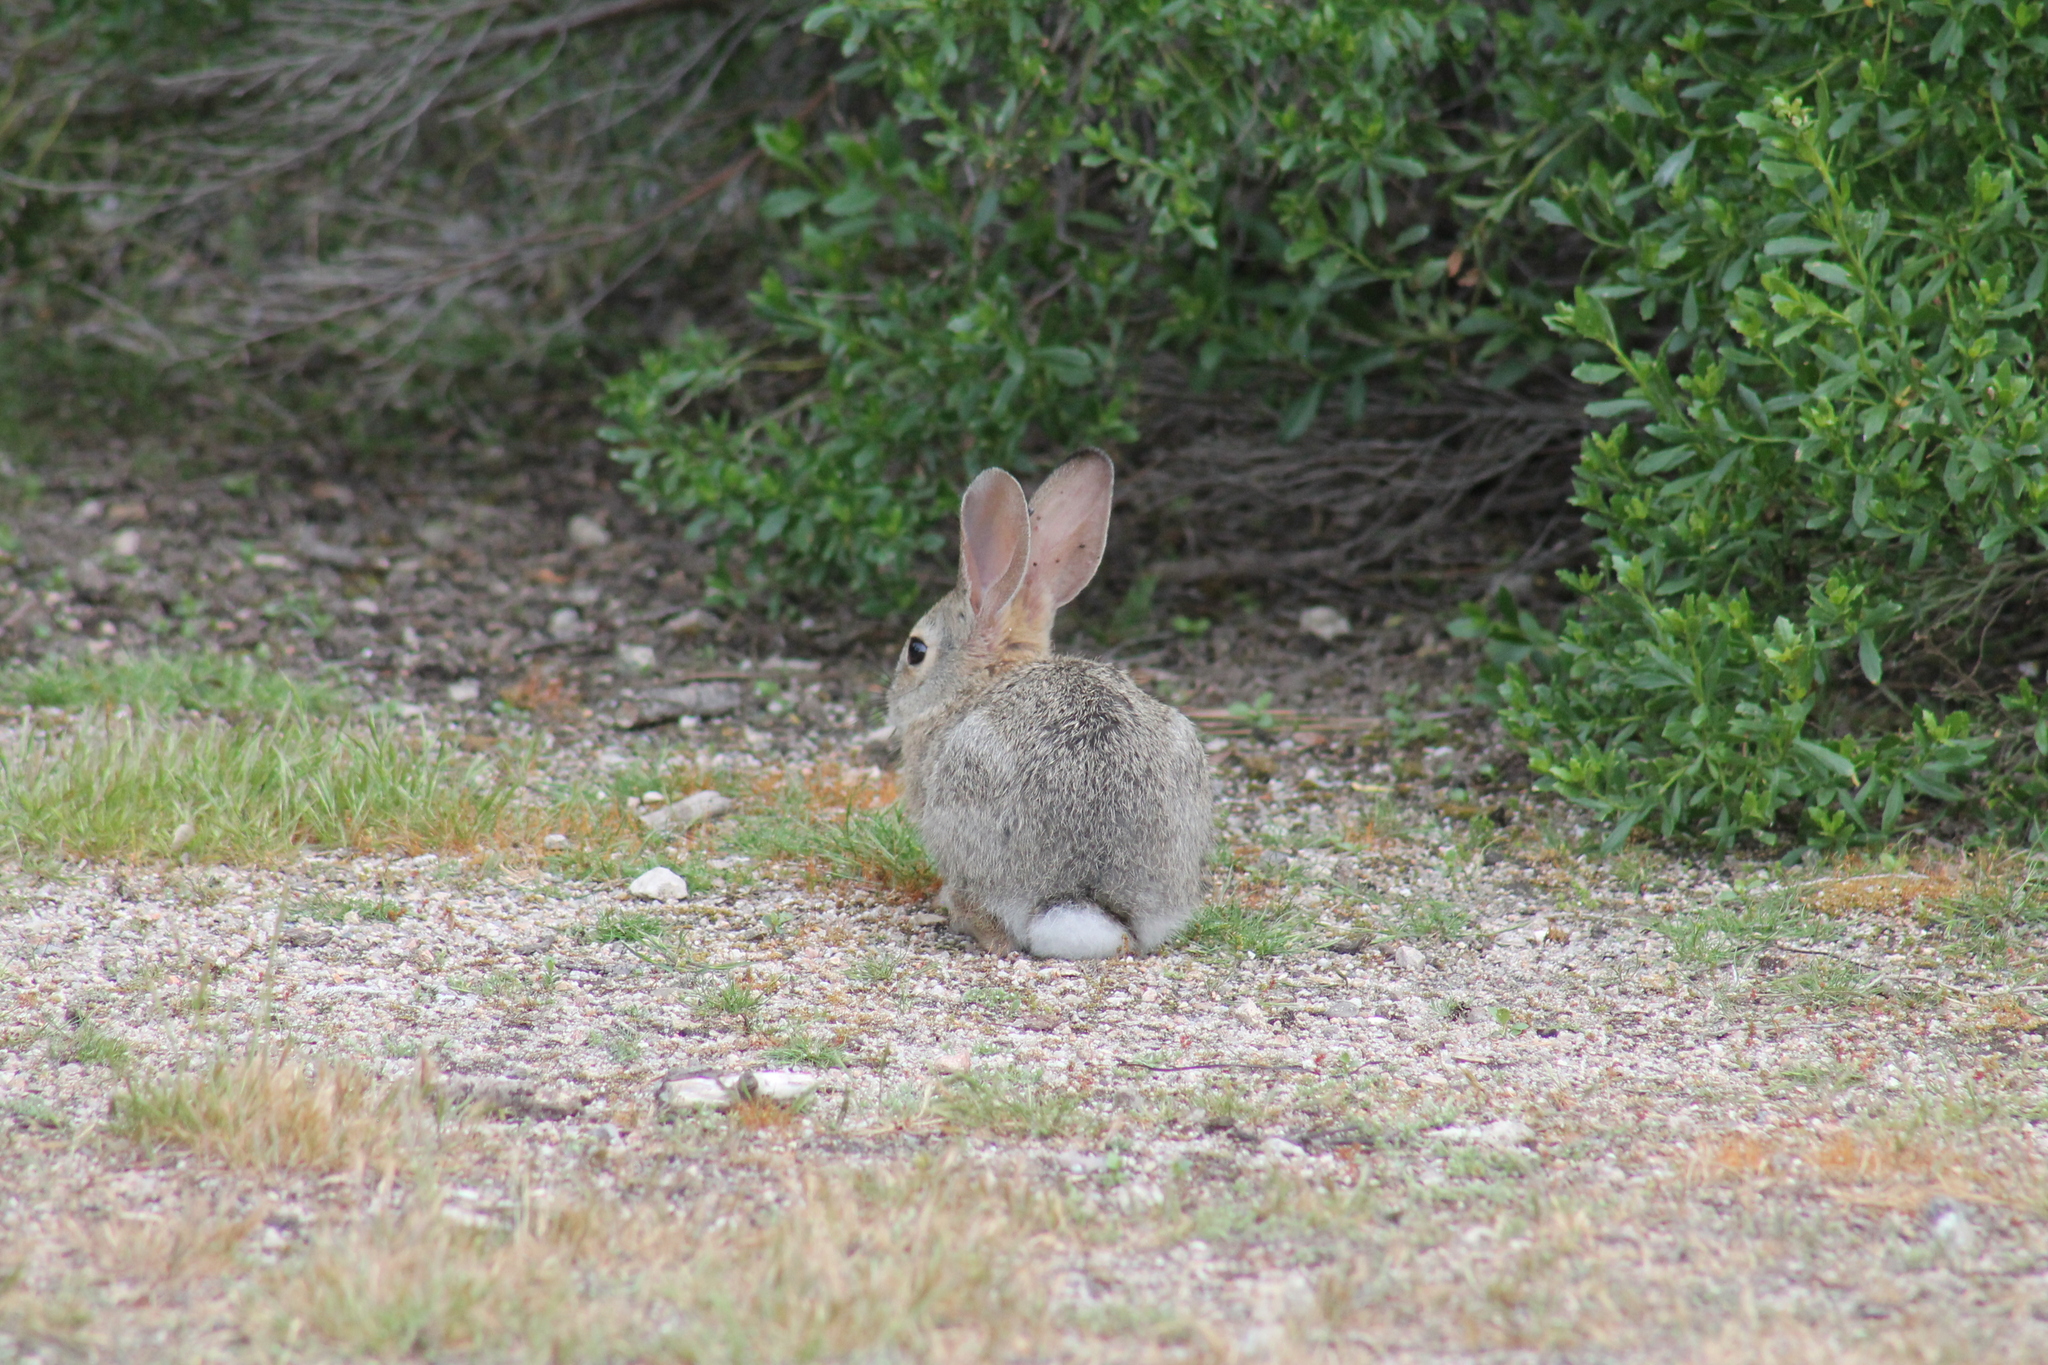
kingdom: Animalia
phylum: Chordata
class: Mammalia
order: Lagomorpha
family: Leporidae
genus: Sylvilagus
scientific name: Sylvilagus audubonii
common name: Desert cottontail
